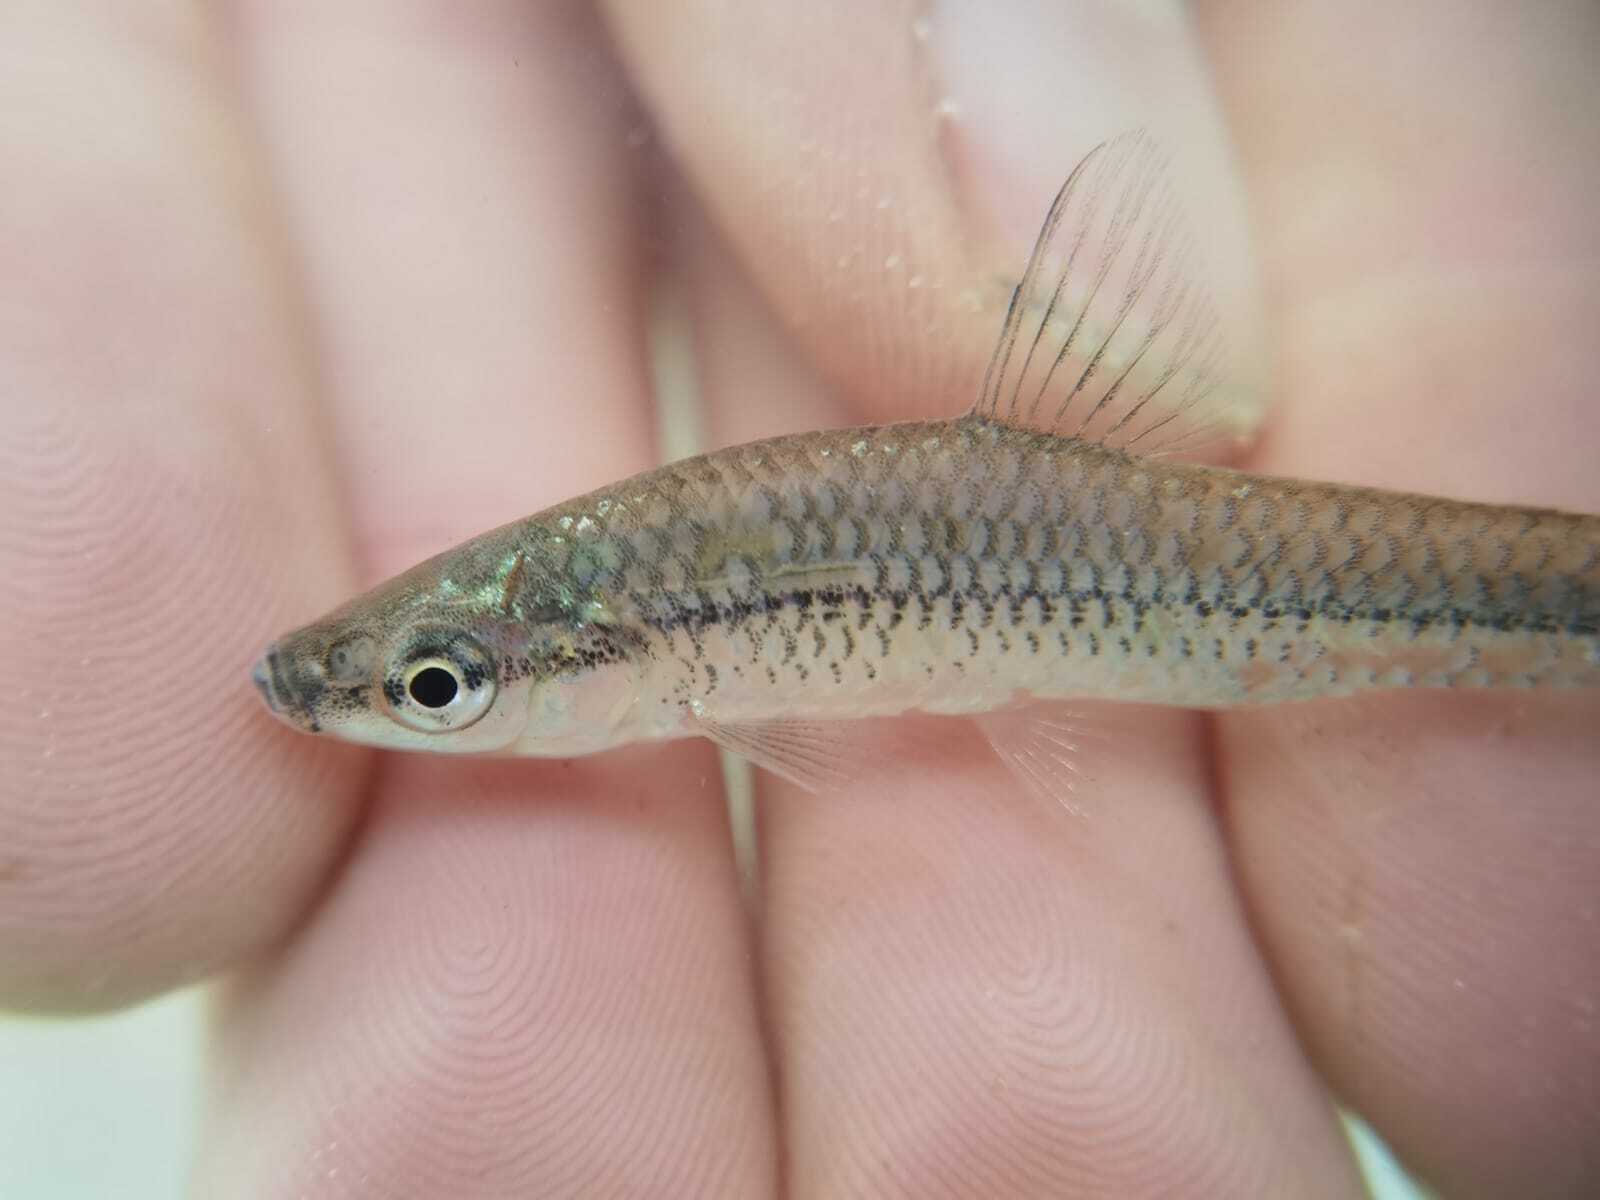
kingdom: Animalia
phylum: Chordata
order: Cypriniformes
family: Cyprinidae
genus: Pseudorasbora
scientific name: Pseudorasbora parva
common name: Topmouth gudgeon
